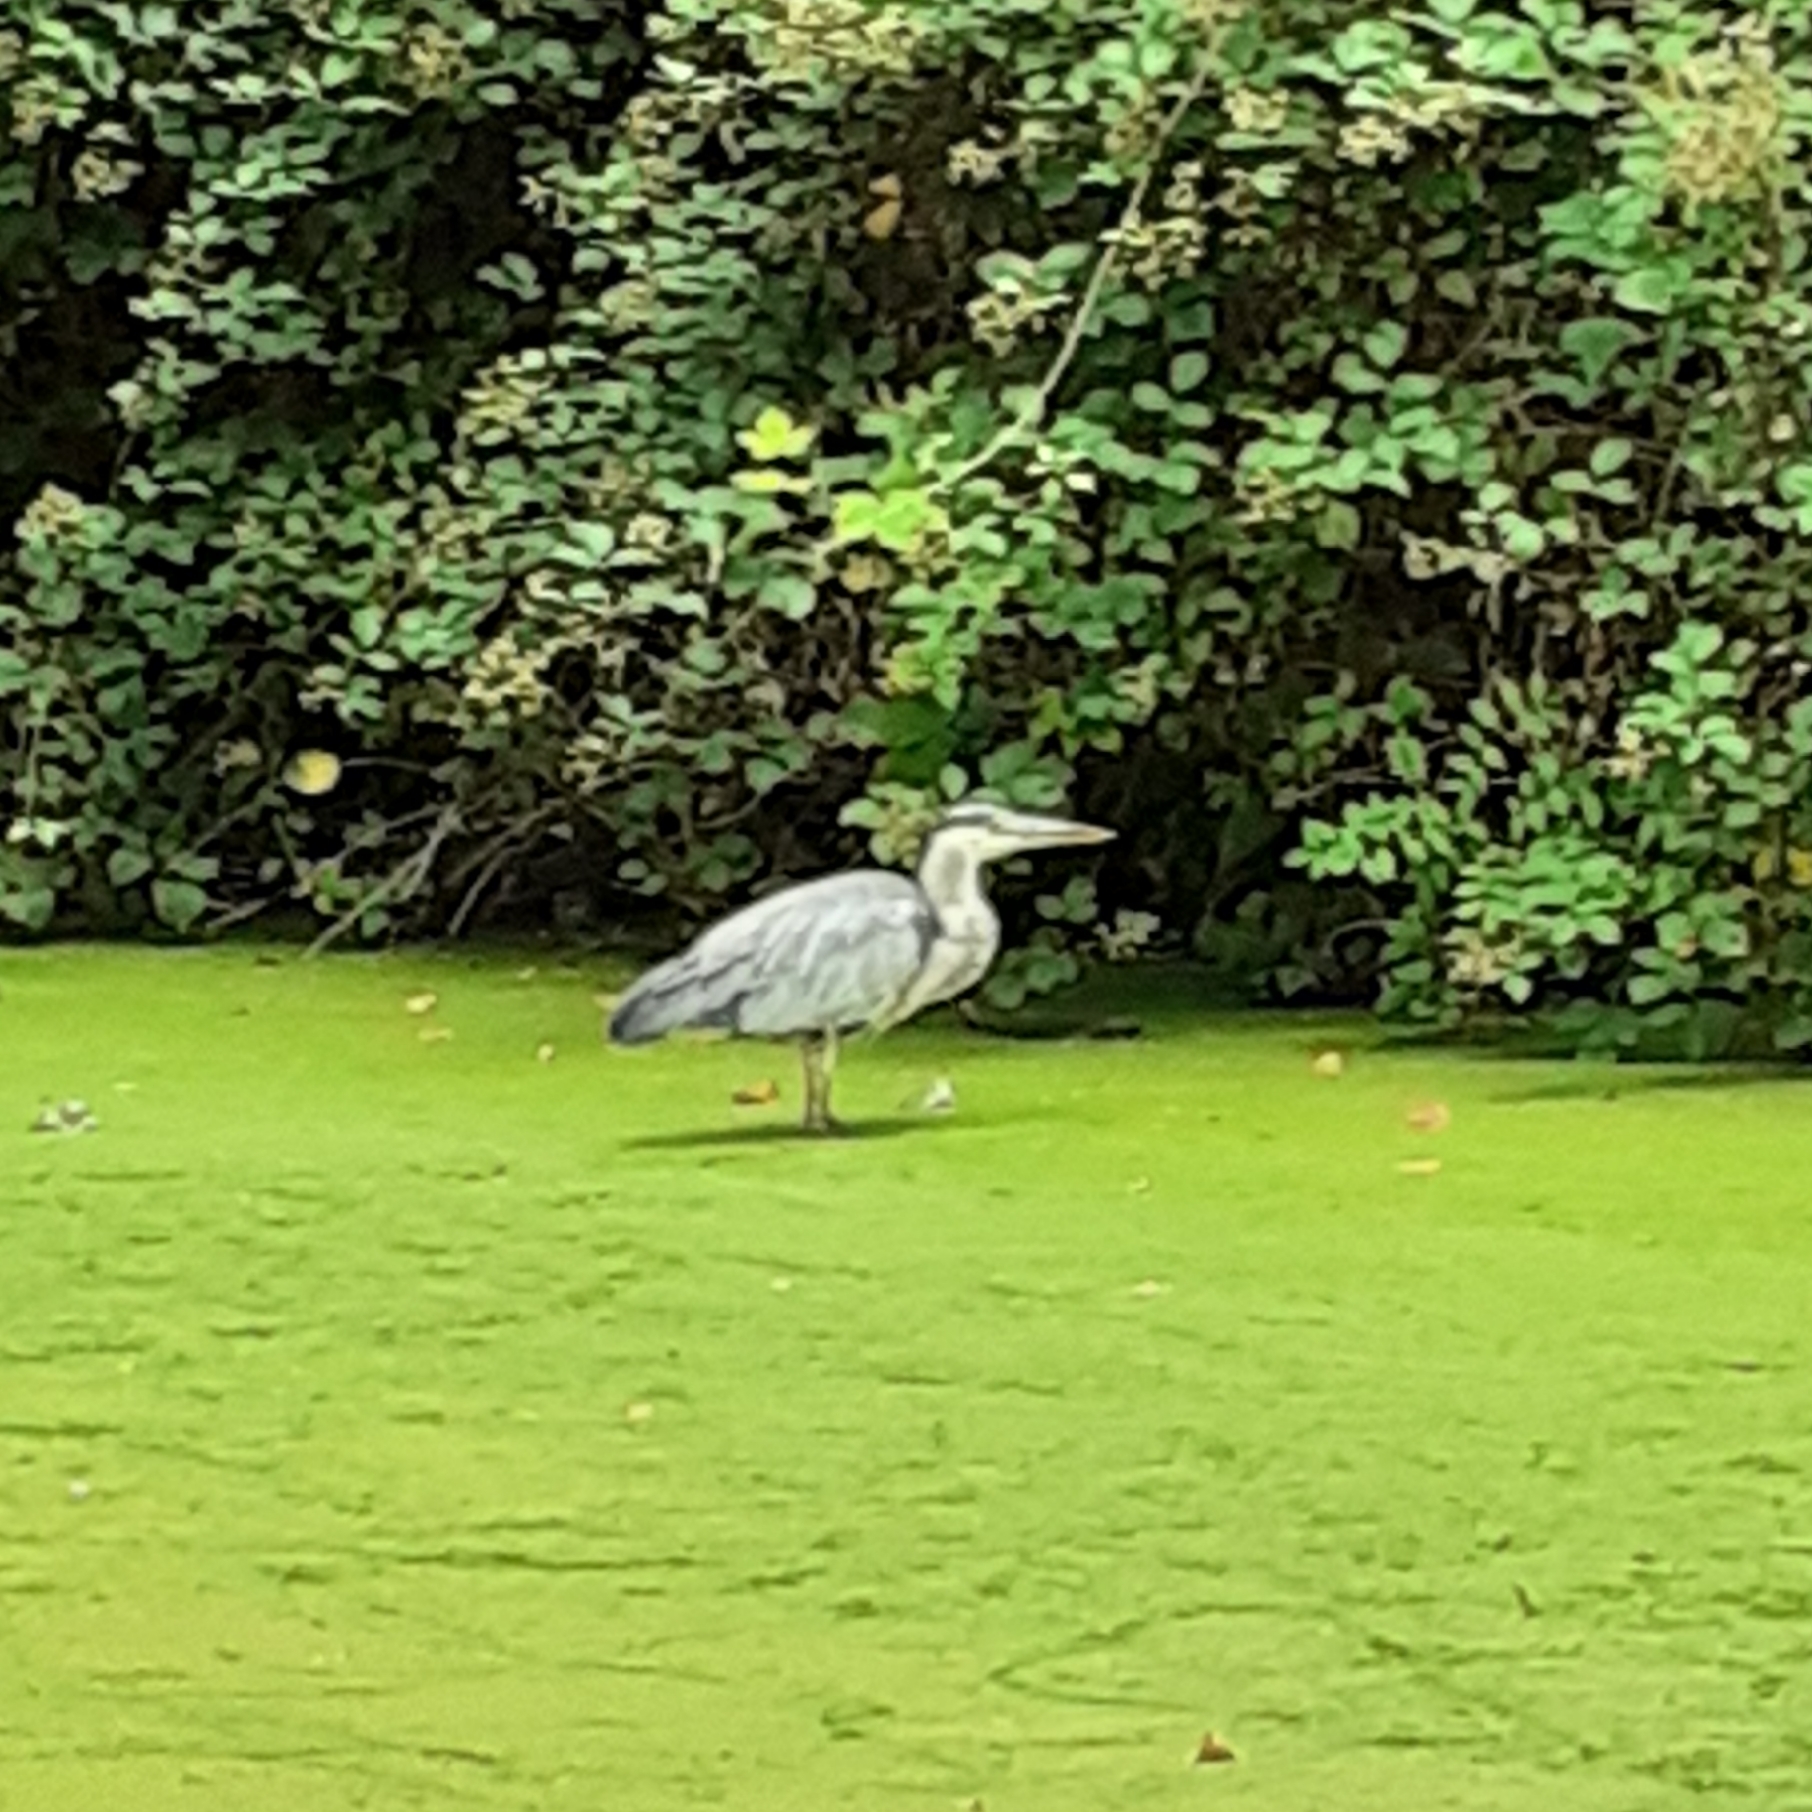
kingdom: Animalia
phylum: Chordata
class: Aves
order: Pelecaniformes
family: Ardeidae
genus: Ardea
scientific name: Ardea cinerea
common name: Grey heron
